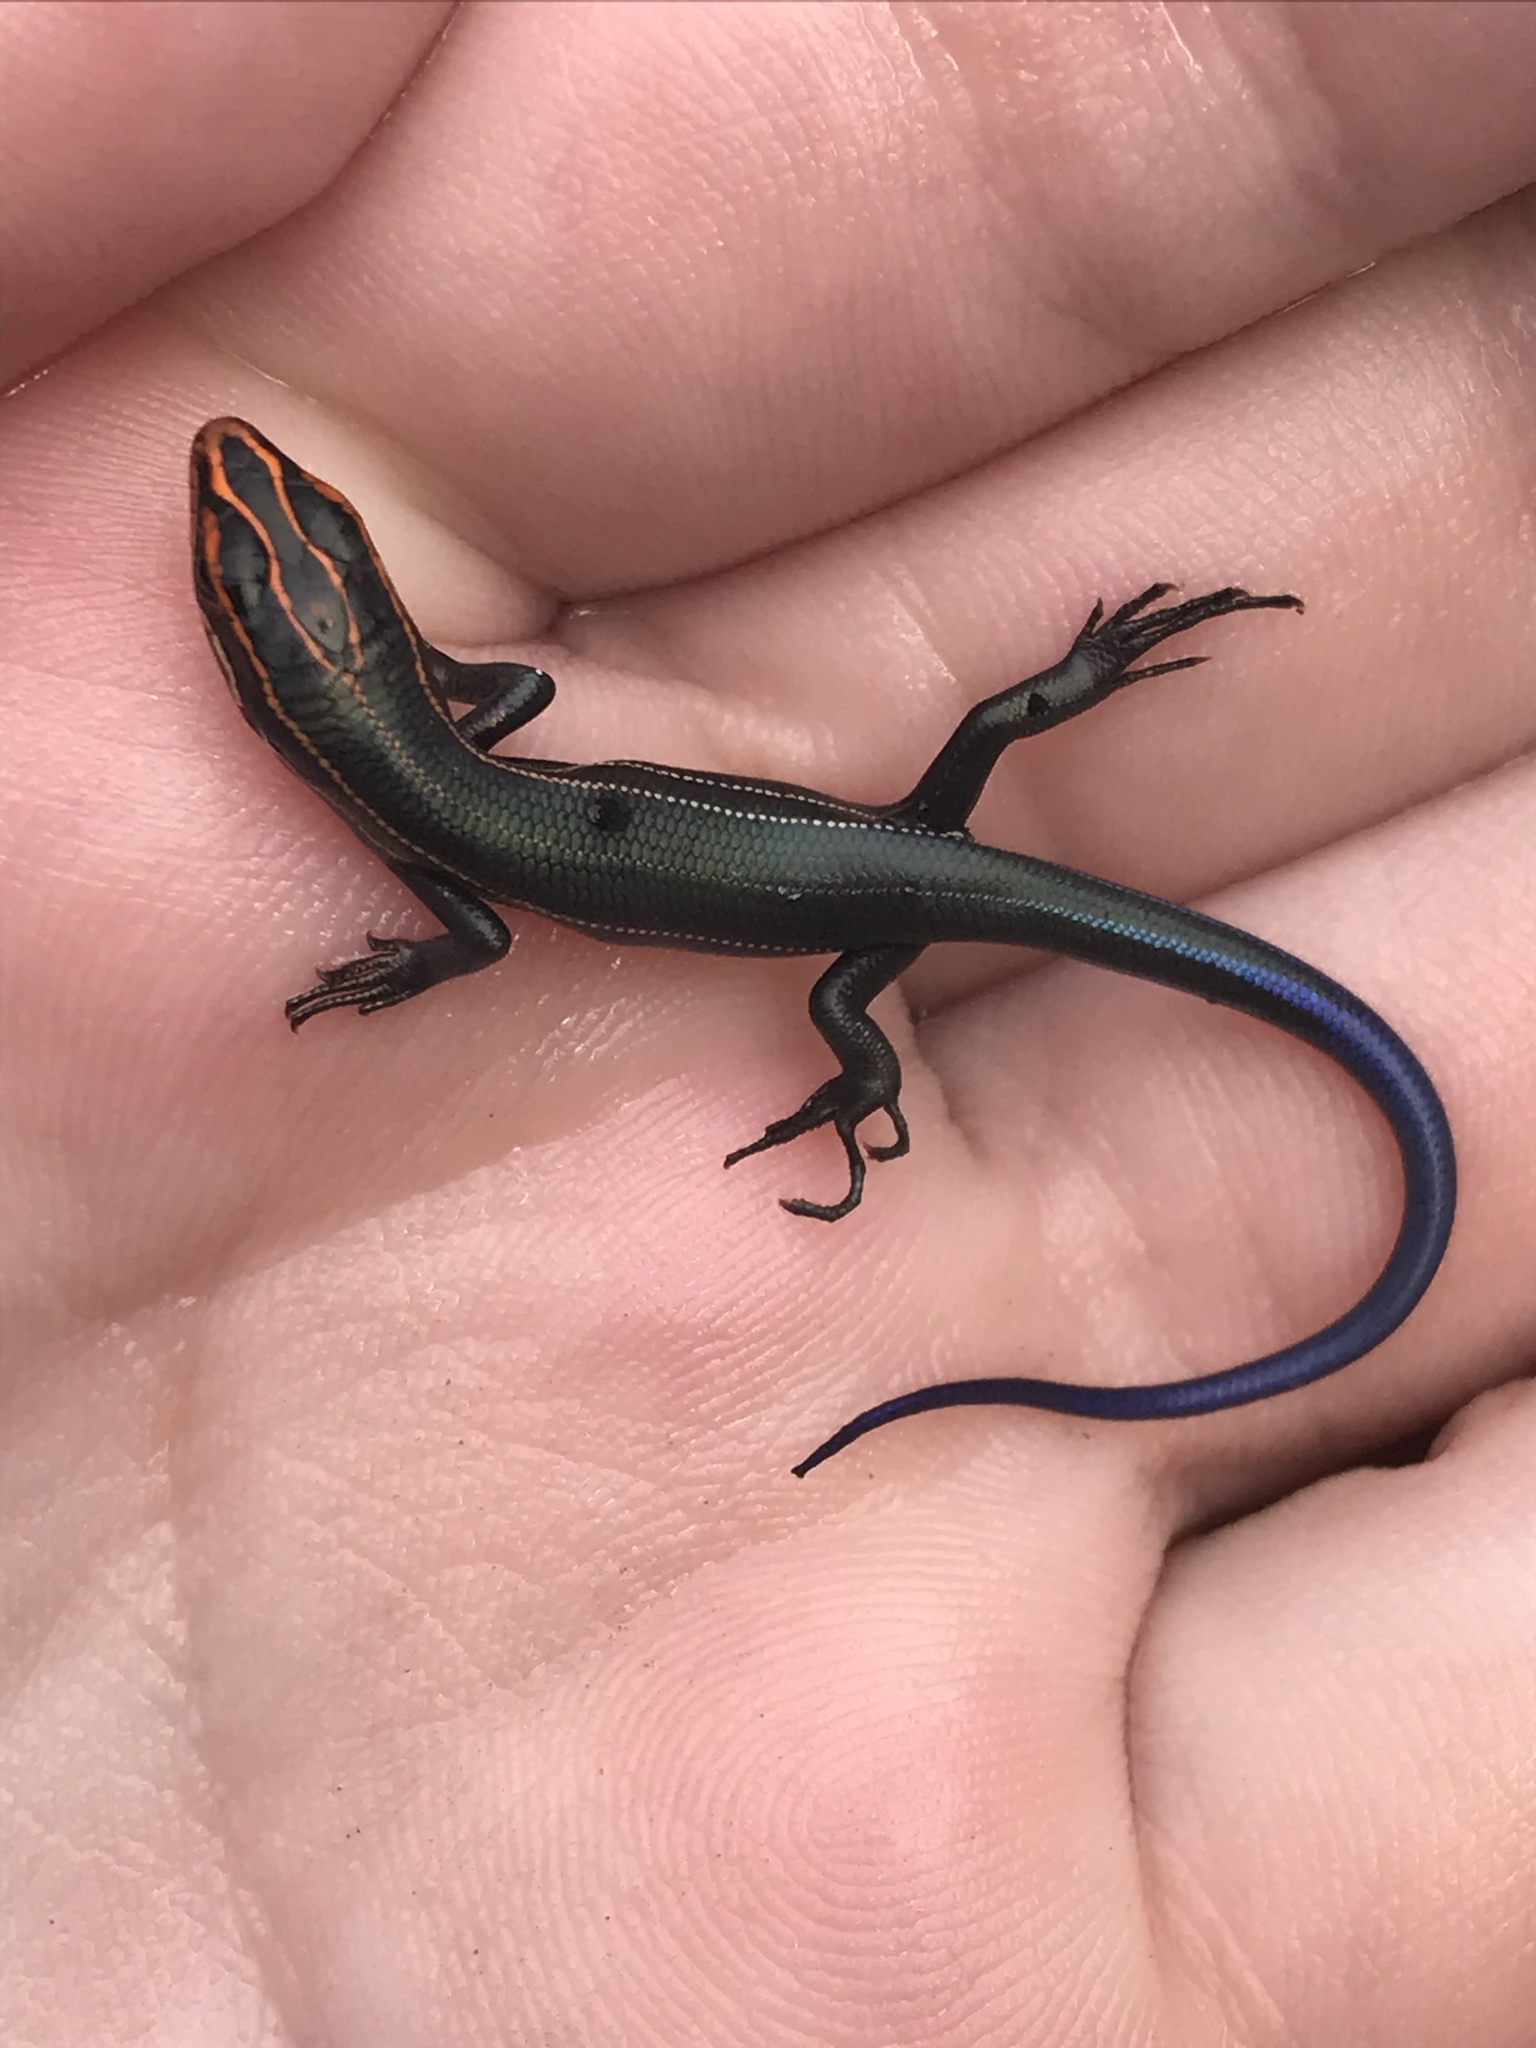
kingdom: Animalia
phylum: Chordata
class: Squamata
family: Scincidae
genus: Plestiodon
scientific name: Plestiodon inexpectatus
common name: Southeastern five-lined skink
